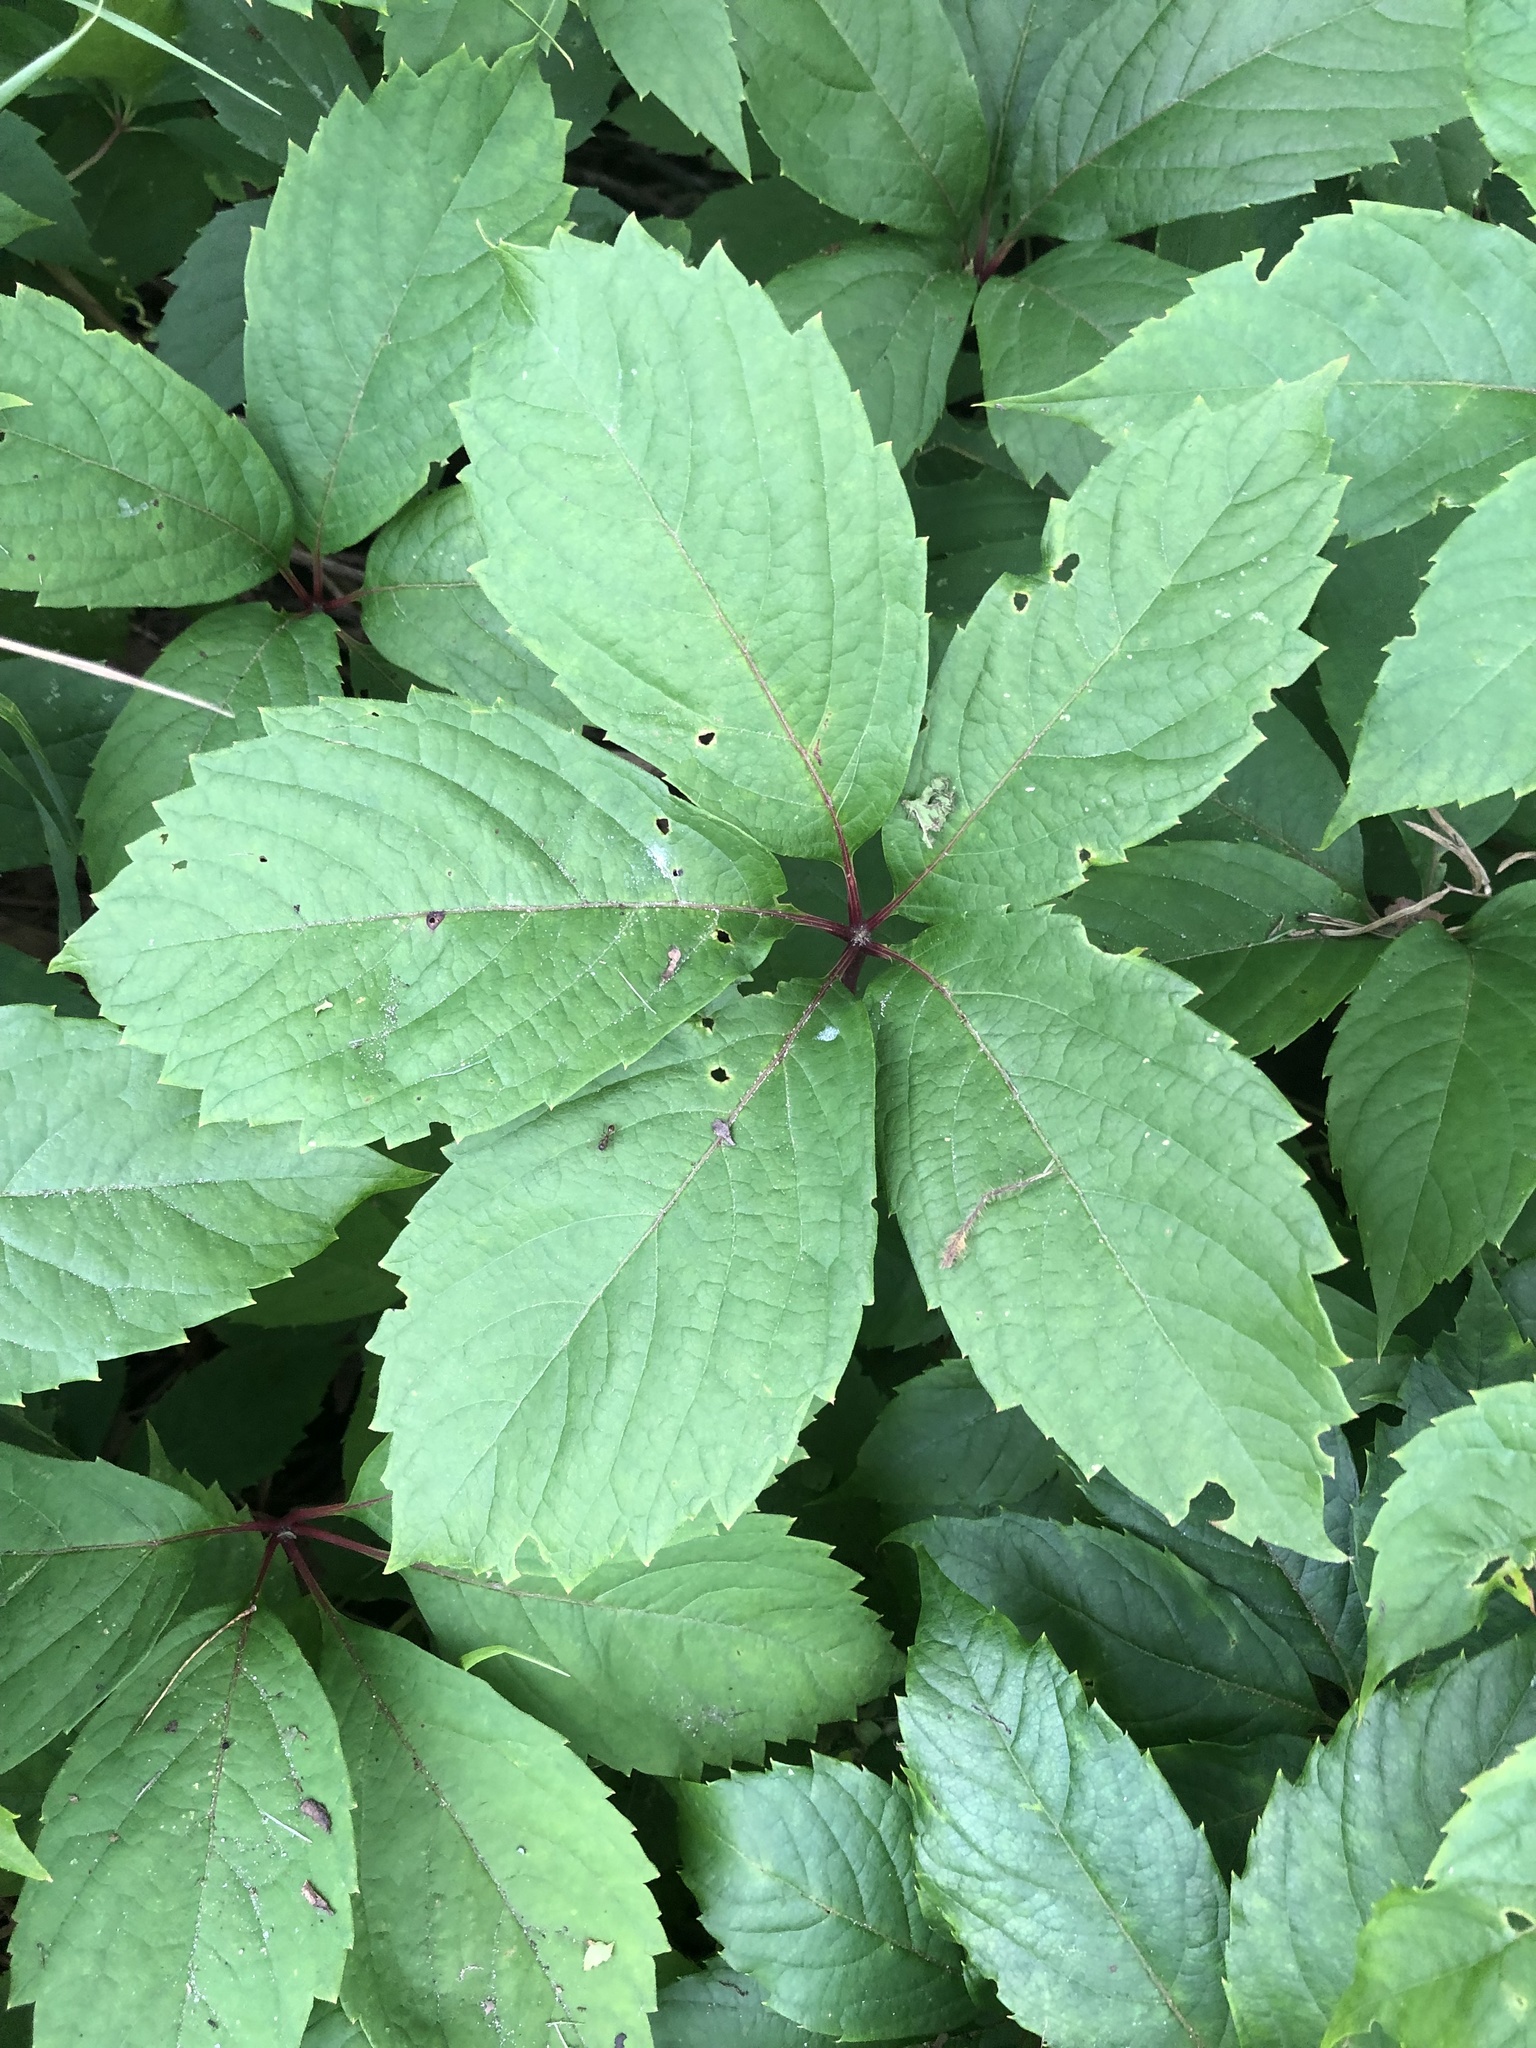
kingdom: Plantae
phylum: Tracheophyta
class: Magnoliopsida
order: Vitales
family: Vitaceae
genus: Parthenocissus
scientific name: Parthenocissus quinquefolia
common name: Virginia-creeper
